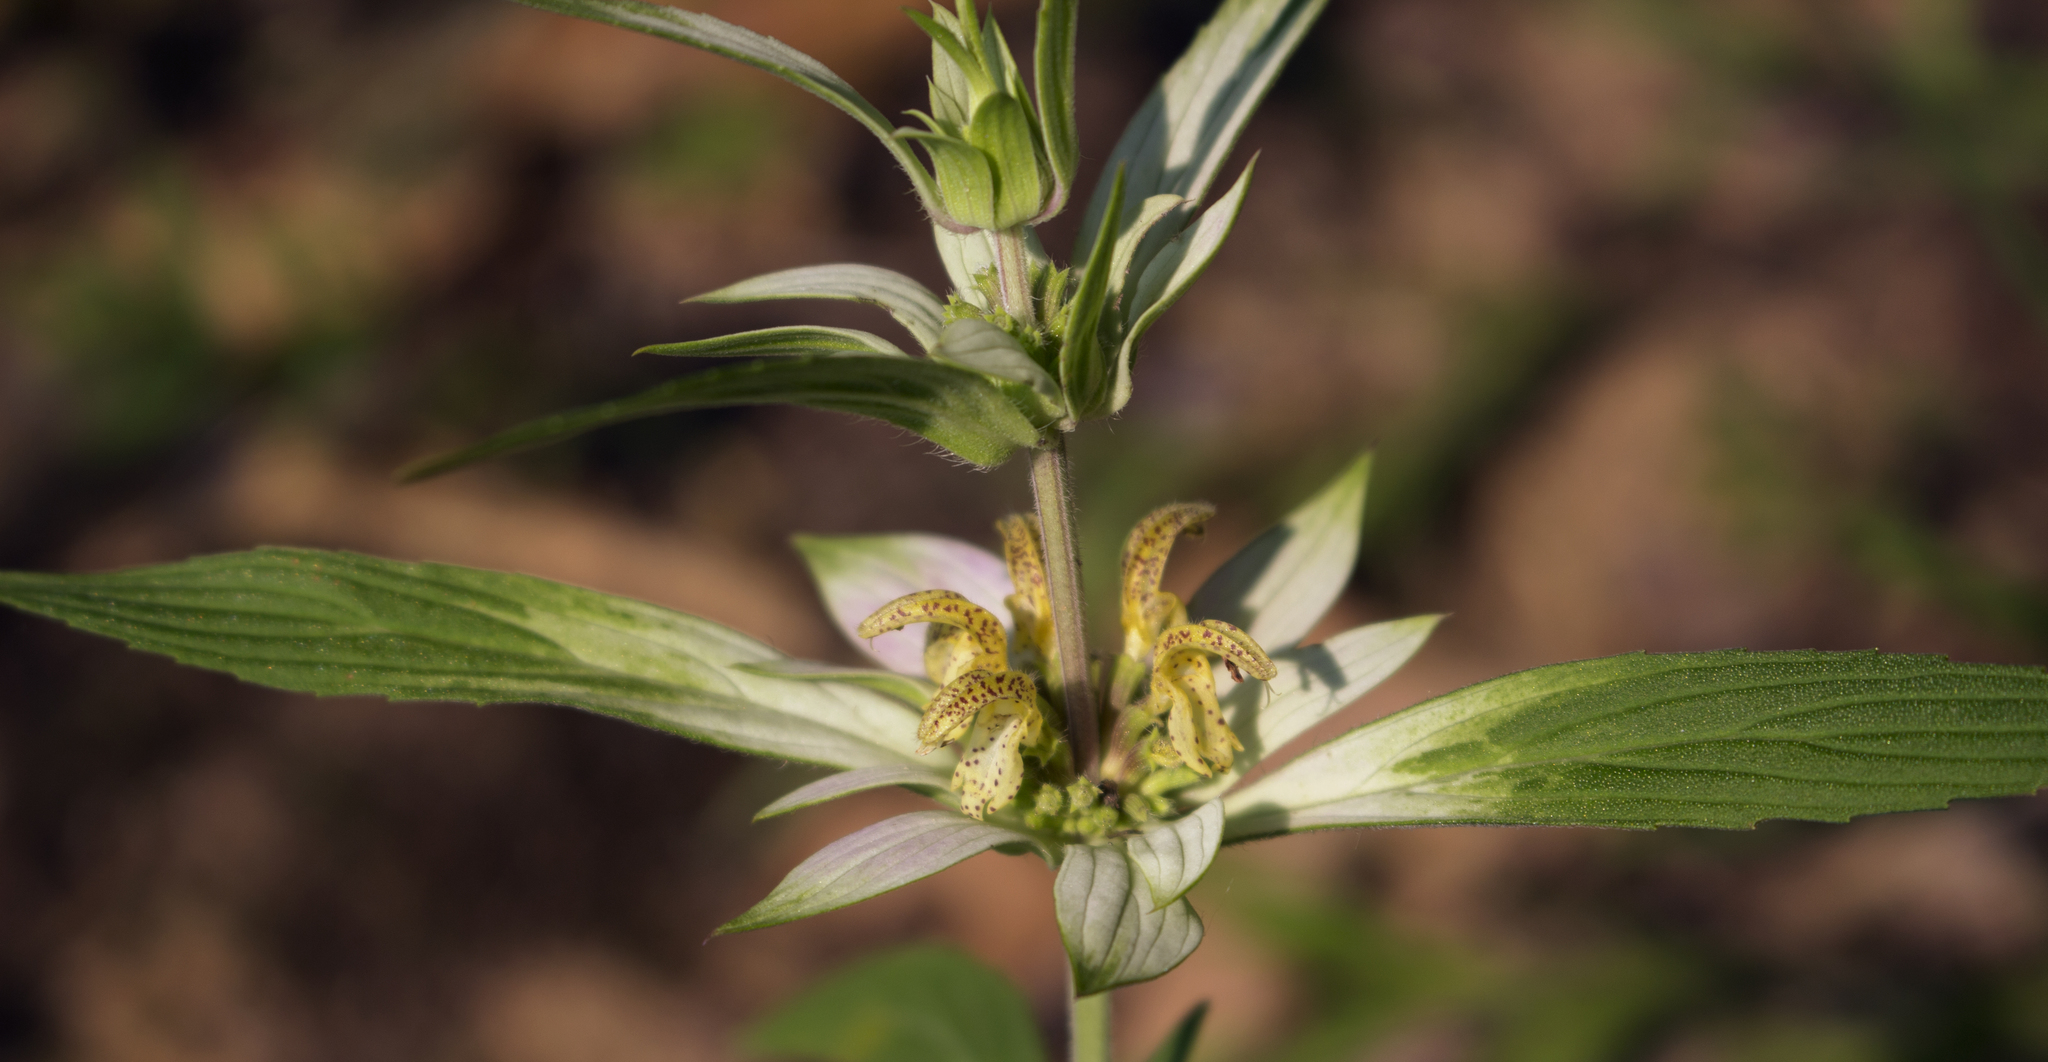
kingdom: Plantae
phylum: Tracheophyta
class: Magnoliopsida
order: Lamiales
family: Lamiaceae
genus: Monarda
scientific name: Monarda punctata
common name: Dotted monarda
